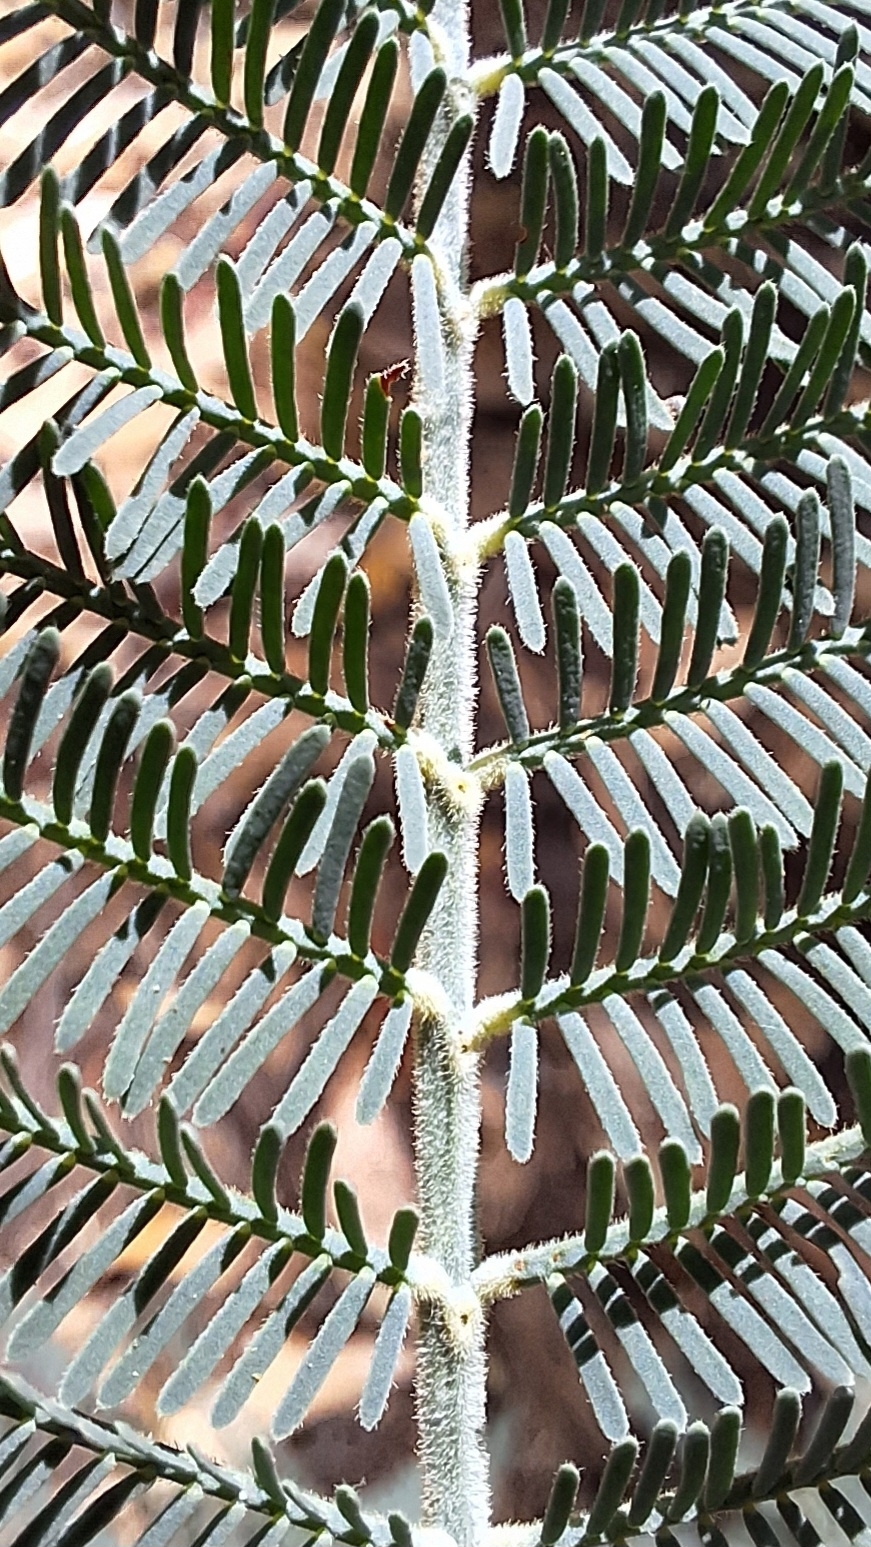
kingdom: Plantae
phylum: Tracheophyta
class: Magnoliopsida
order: Fabales
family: Fabaceae
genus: Acacia
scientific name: Acacia dealbata
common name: Silver wattle
